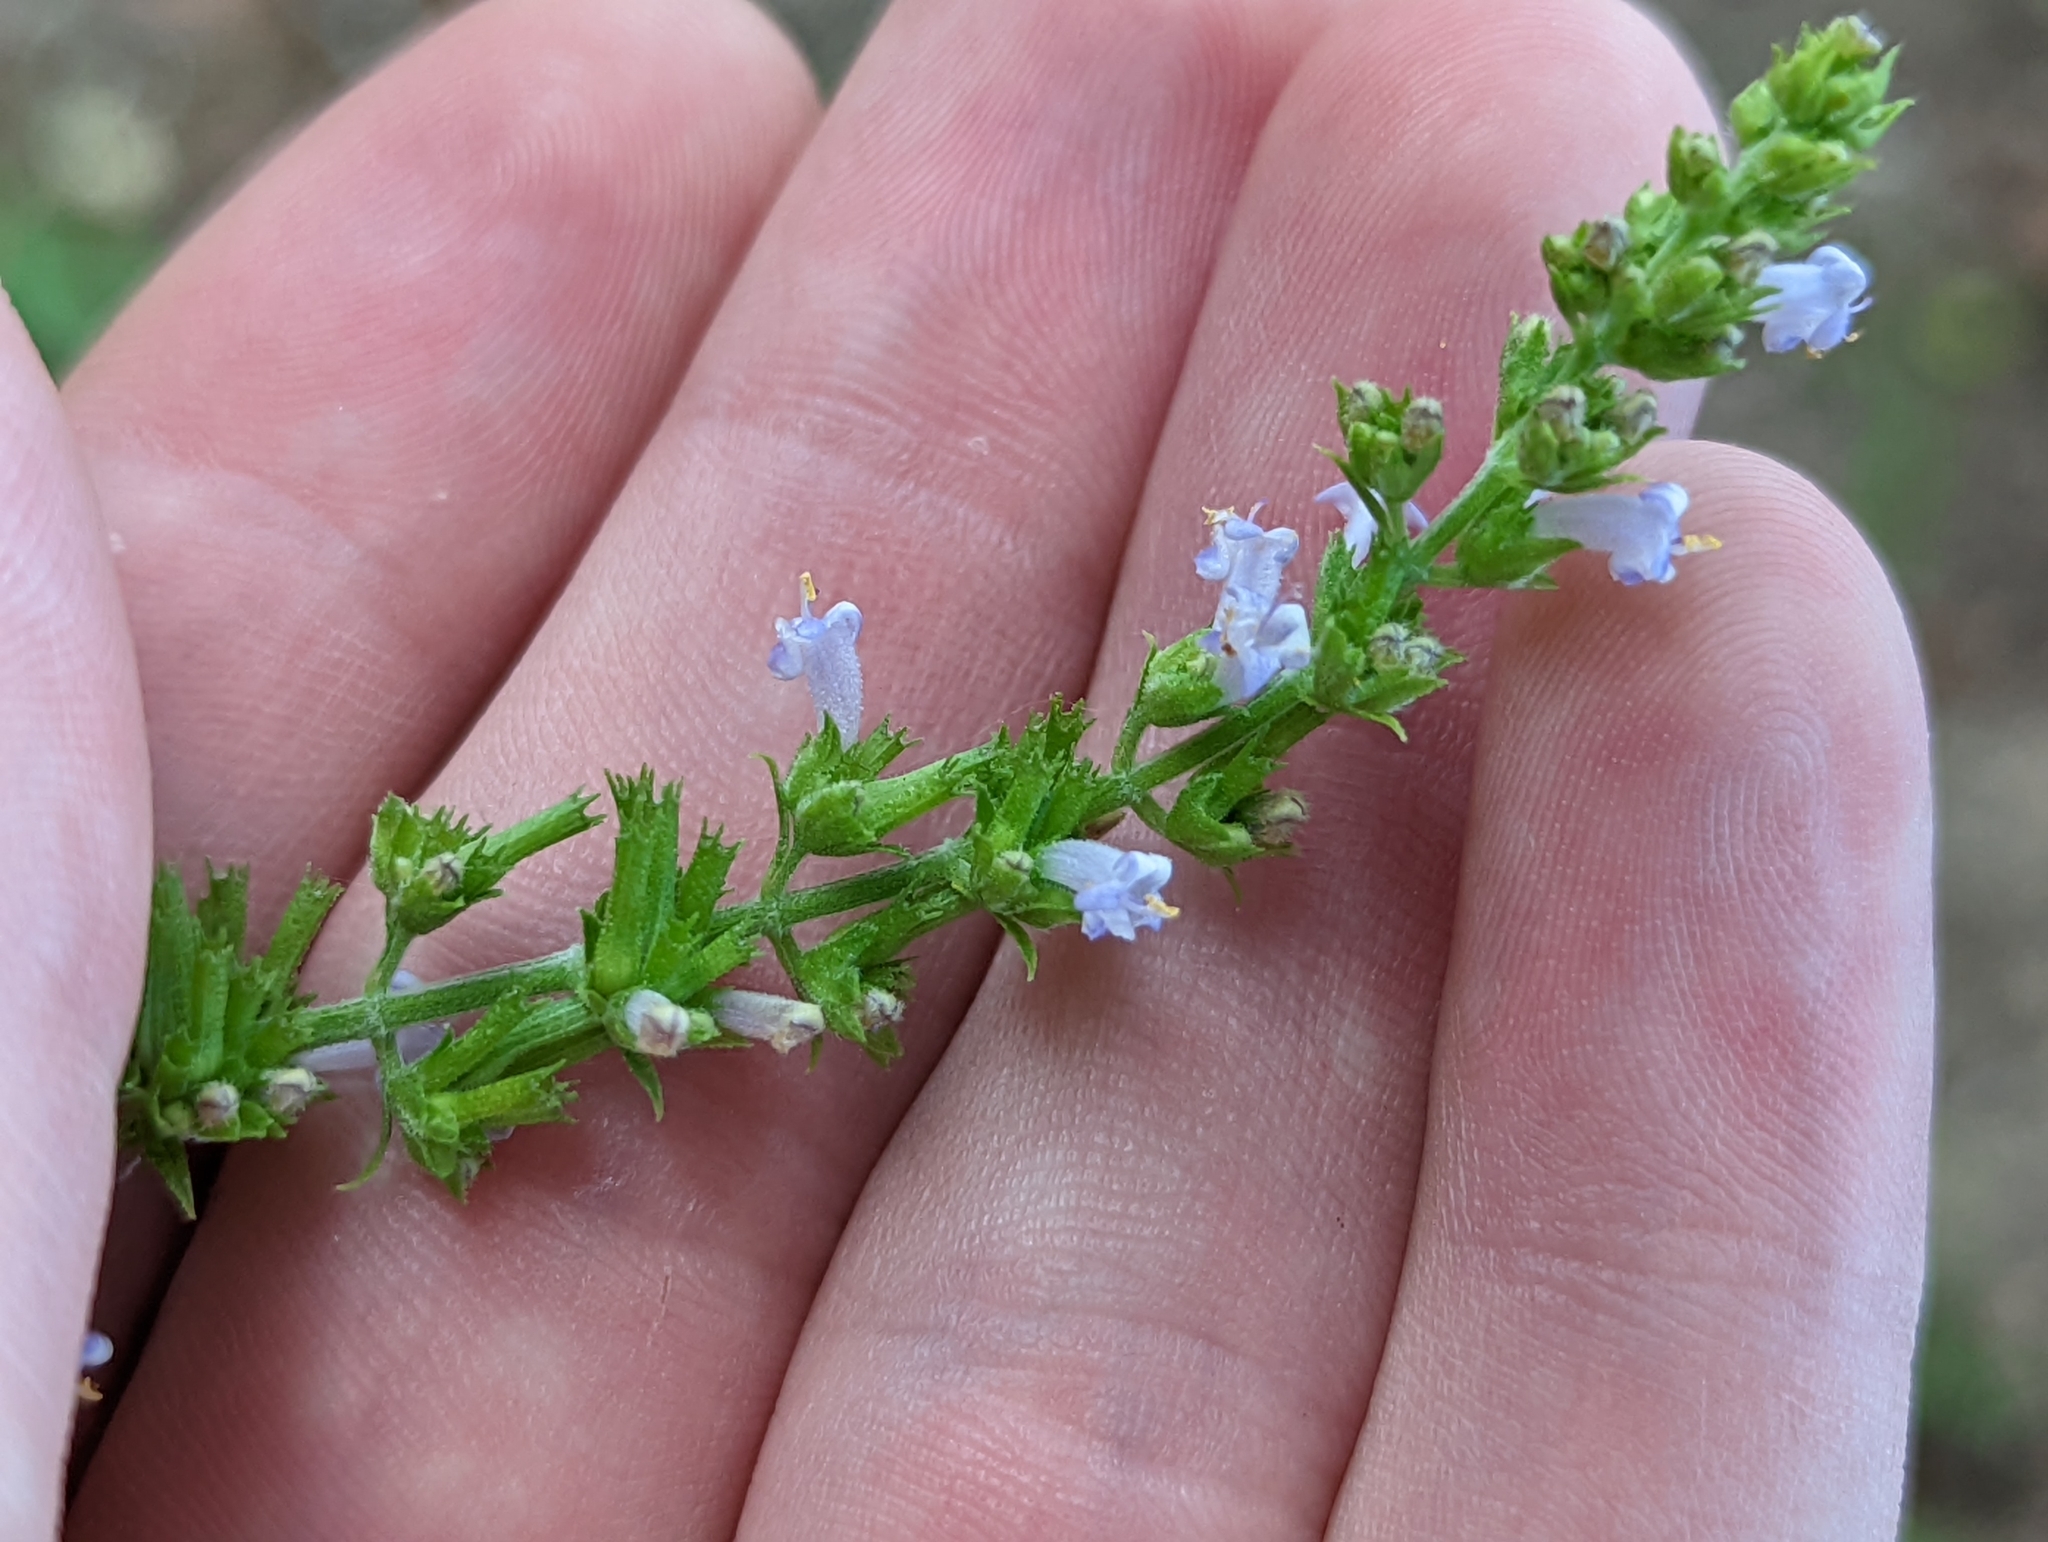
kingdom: Plantae
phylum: Tracheophyta
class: Magnoliopsida
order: Lamiales
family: Lamiaceae
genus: Cantinoa
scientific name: Cantinoa mutabilis
